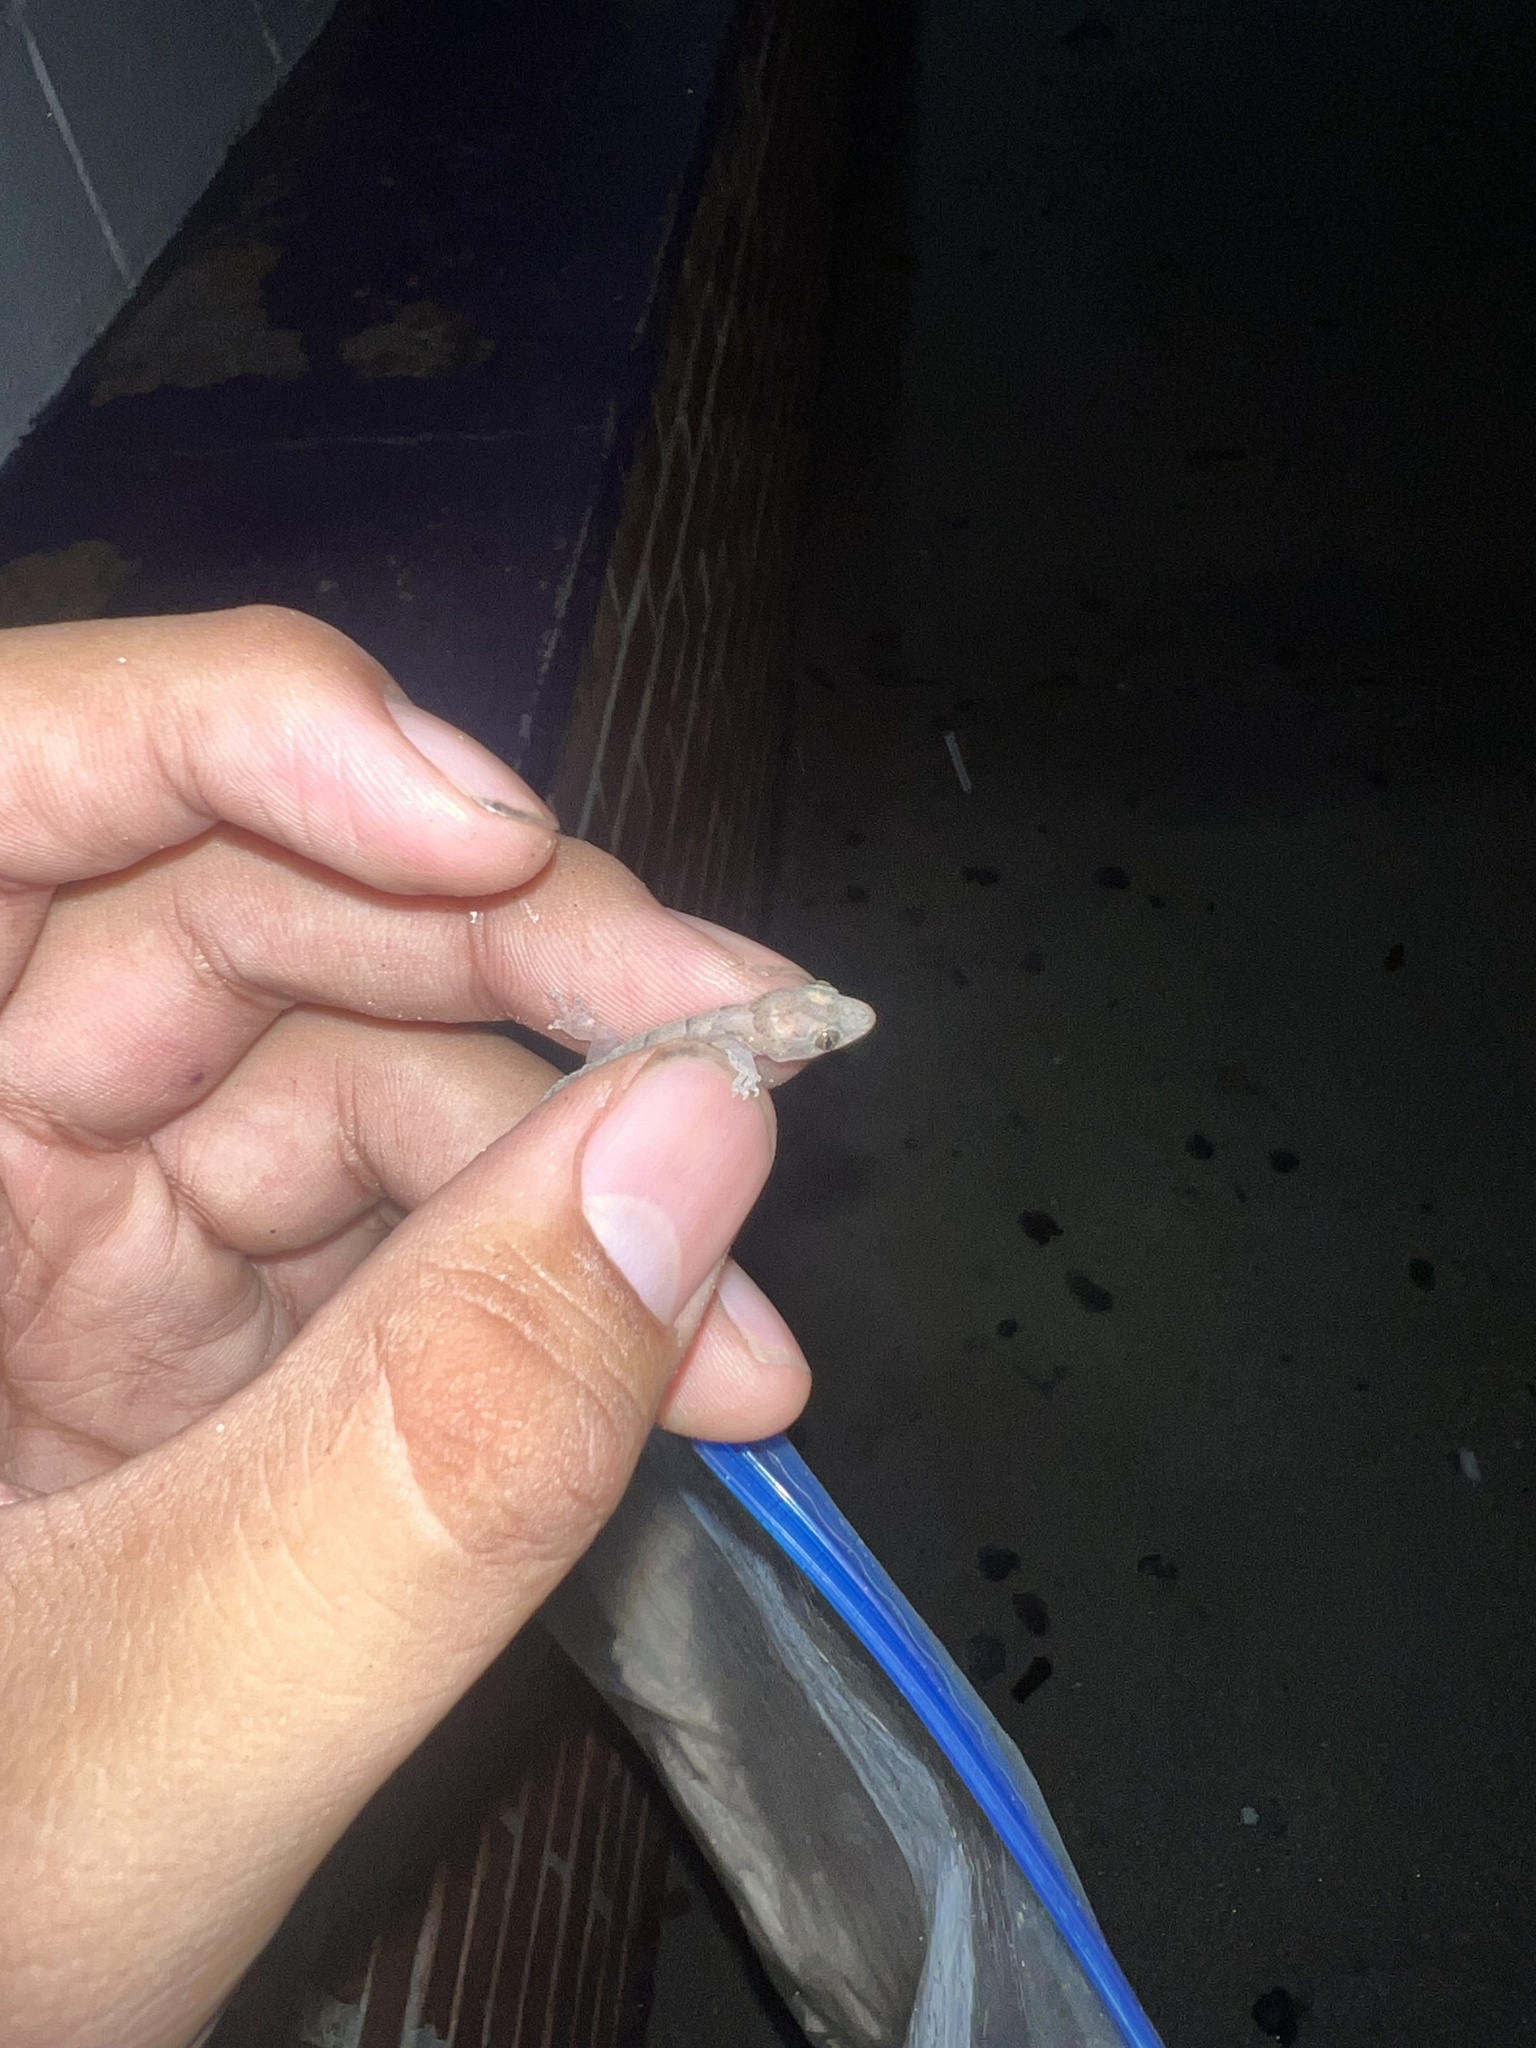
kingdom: Animalia
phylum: Chordata
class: Squamata
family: Gekkonidae
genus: Hemidactylus
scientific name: Hemidactylus mabouia
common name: House gecko
